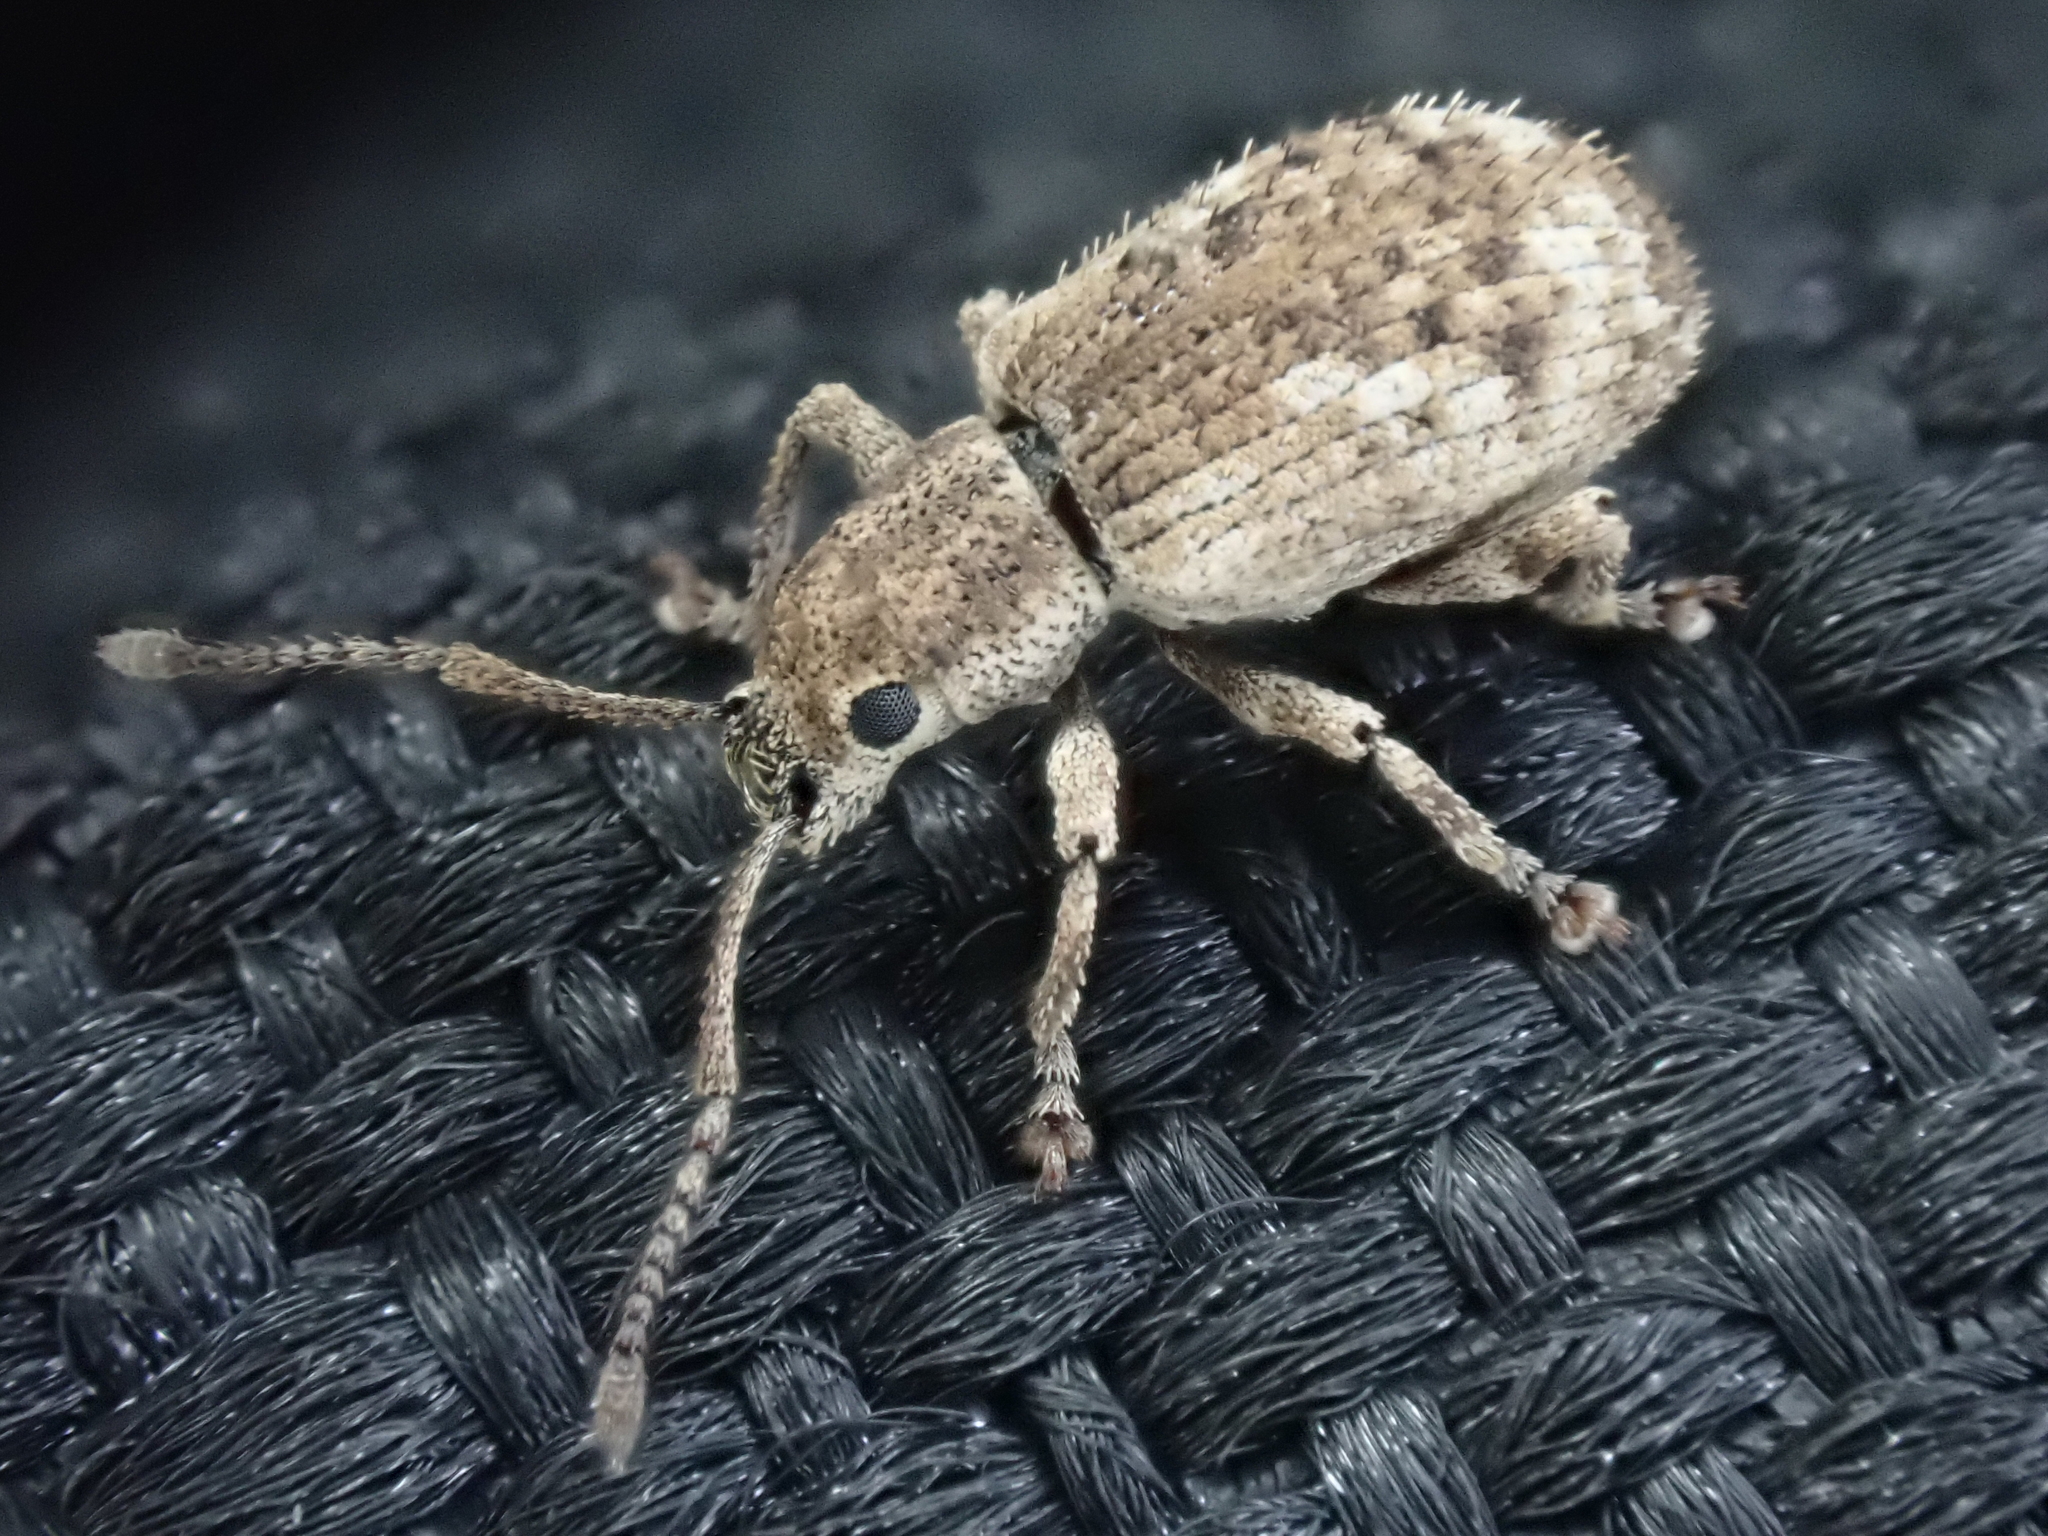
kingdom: Animalia
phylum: Arthropoda
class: Insecta
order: Coleoptera
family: Curculionidae
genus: Pseudoedophrys
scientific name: Pseudoedophrys hilleri
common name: Weevil
